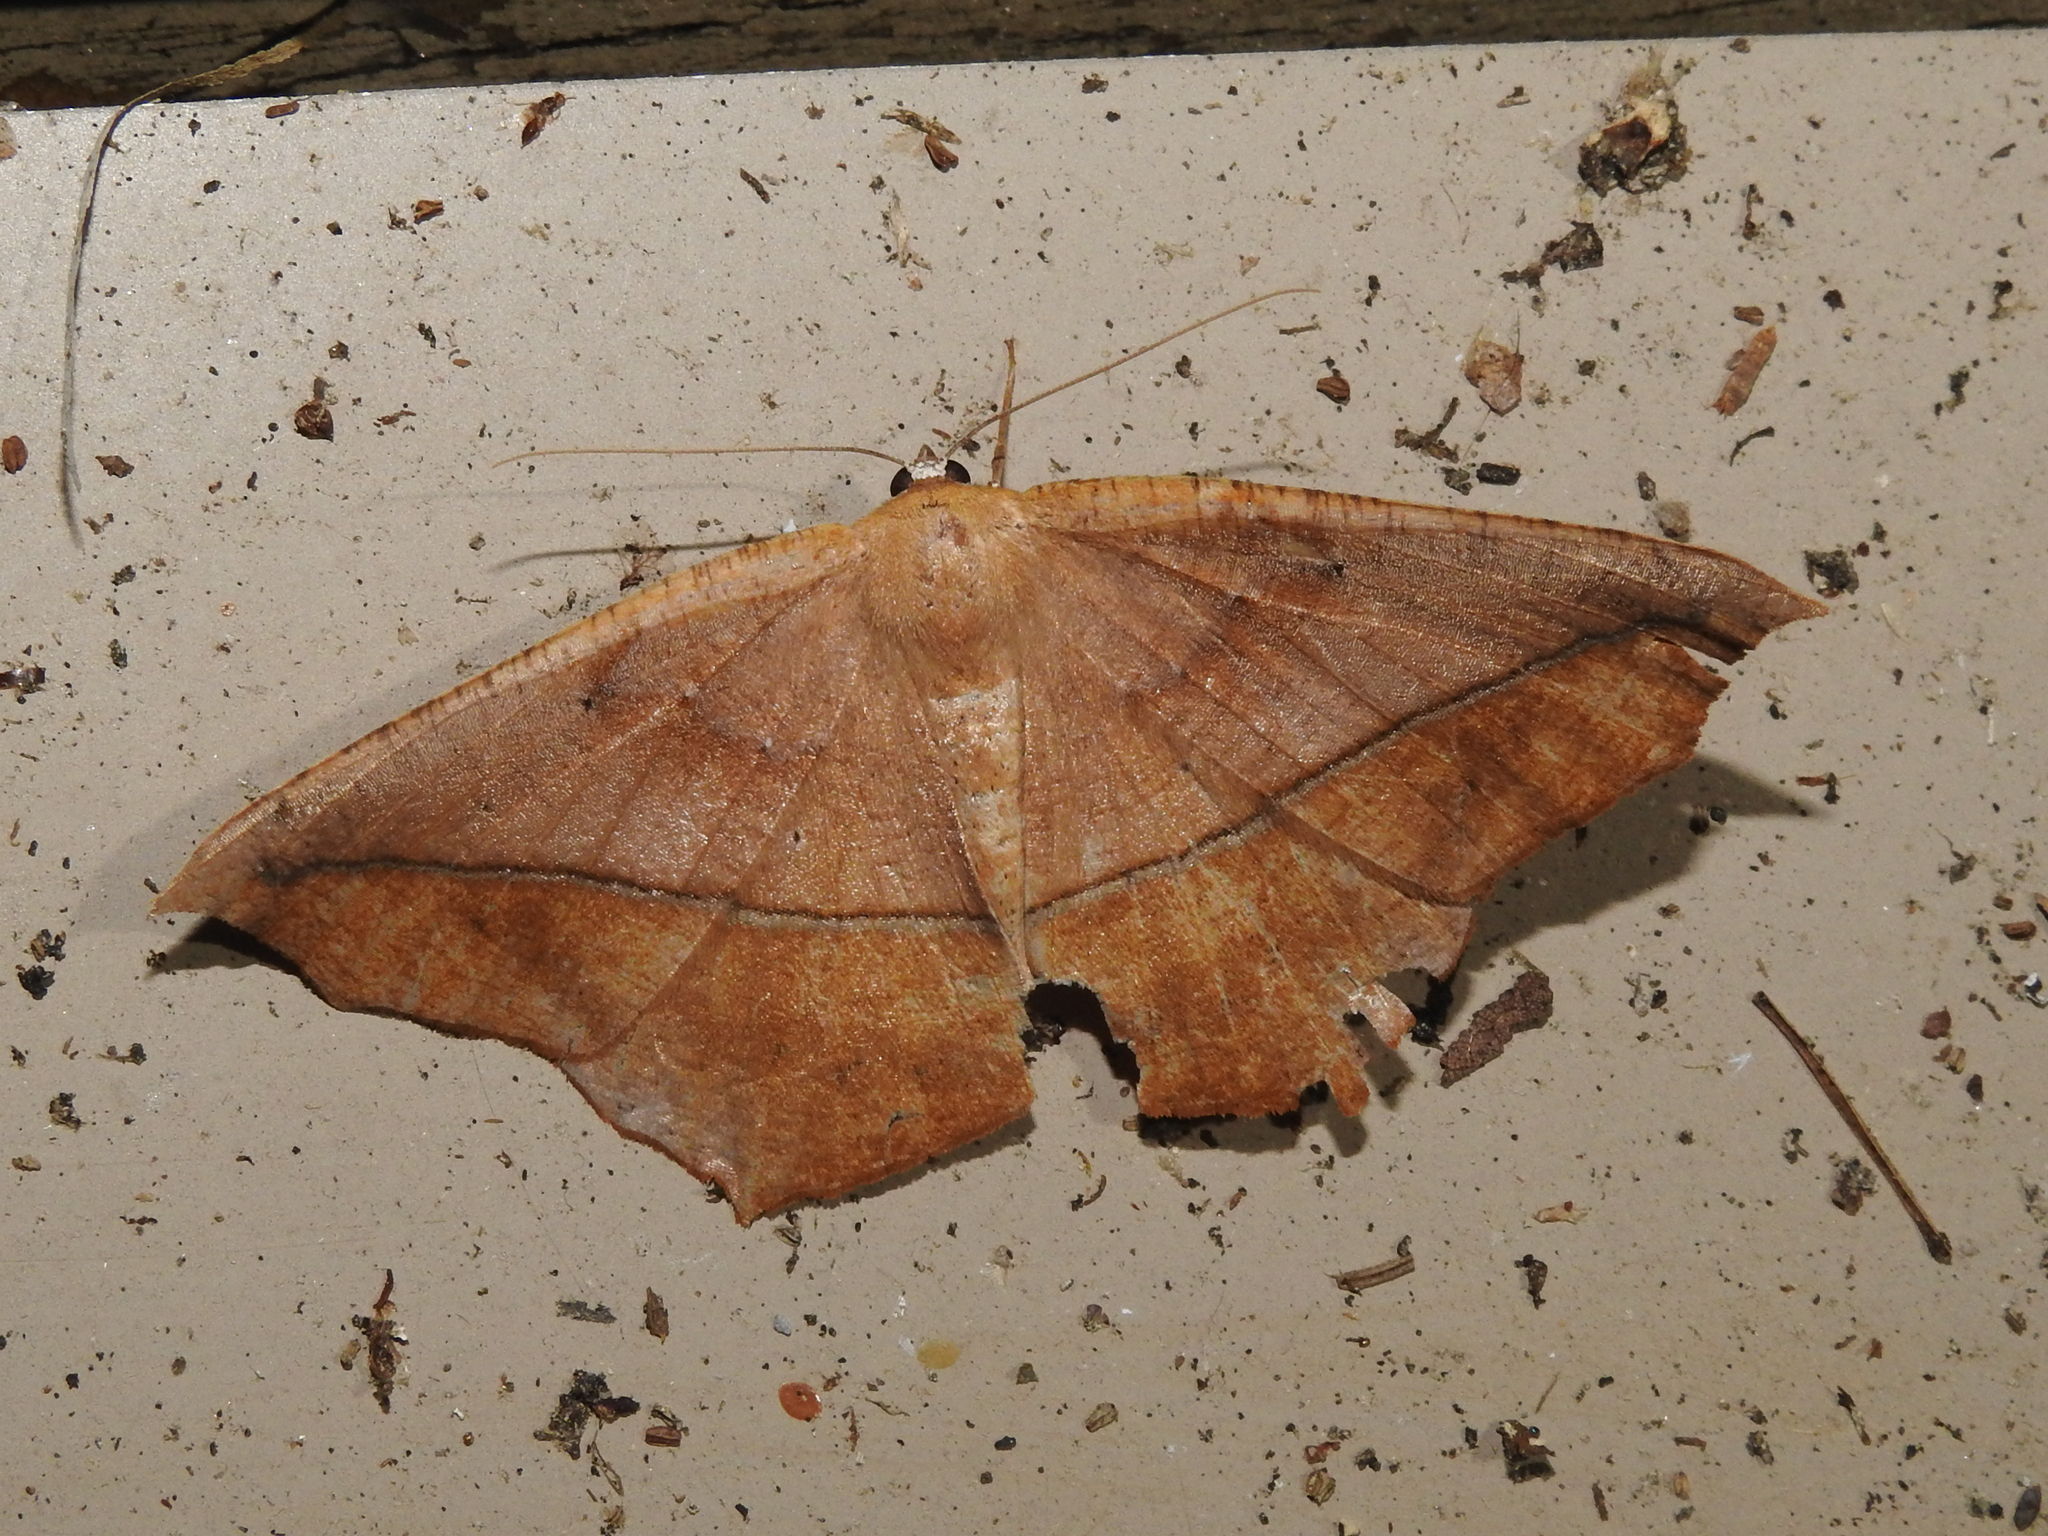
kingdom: Animalia
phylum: Arthropoda
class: Insecta
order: Lepidoptera
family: Geometridae
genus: Prochoerodes
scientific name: Prochoerodes lineola
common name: Large maple spanworm
